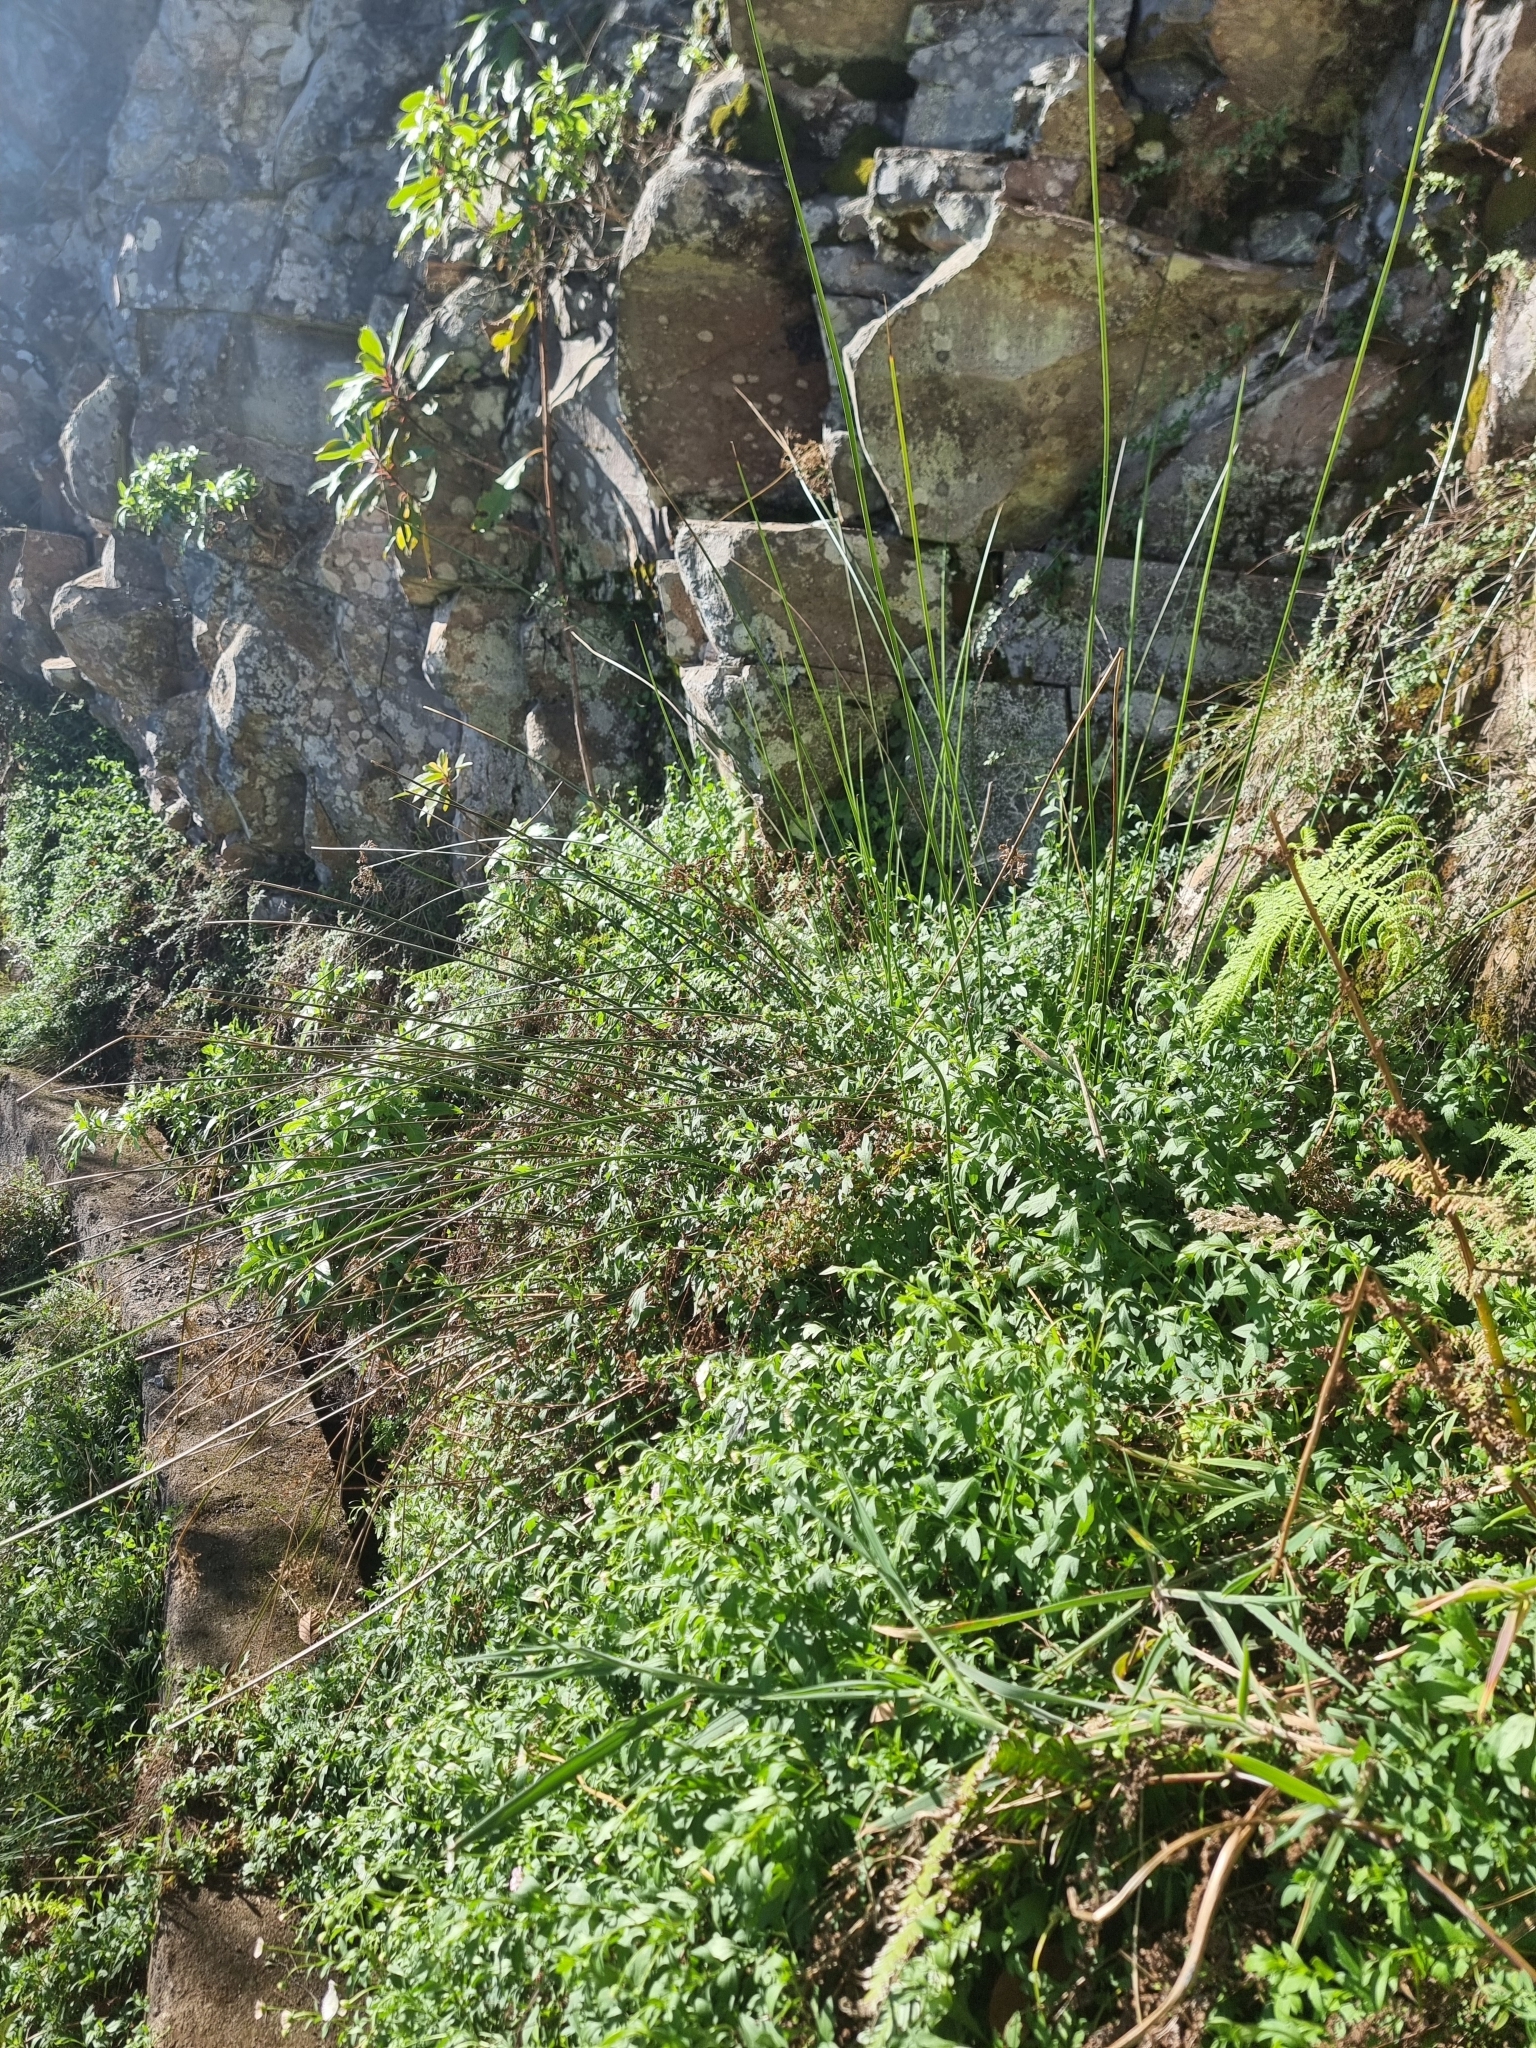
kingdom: Plantae
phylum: Tracheophyta
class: Liliopsida
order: Poales
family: Juncaceae
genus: Juncus
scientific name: Juncus effusus
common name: Soft rush
